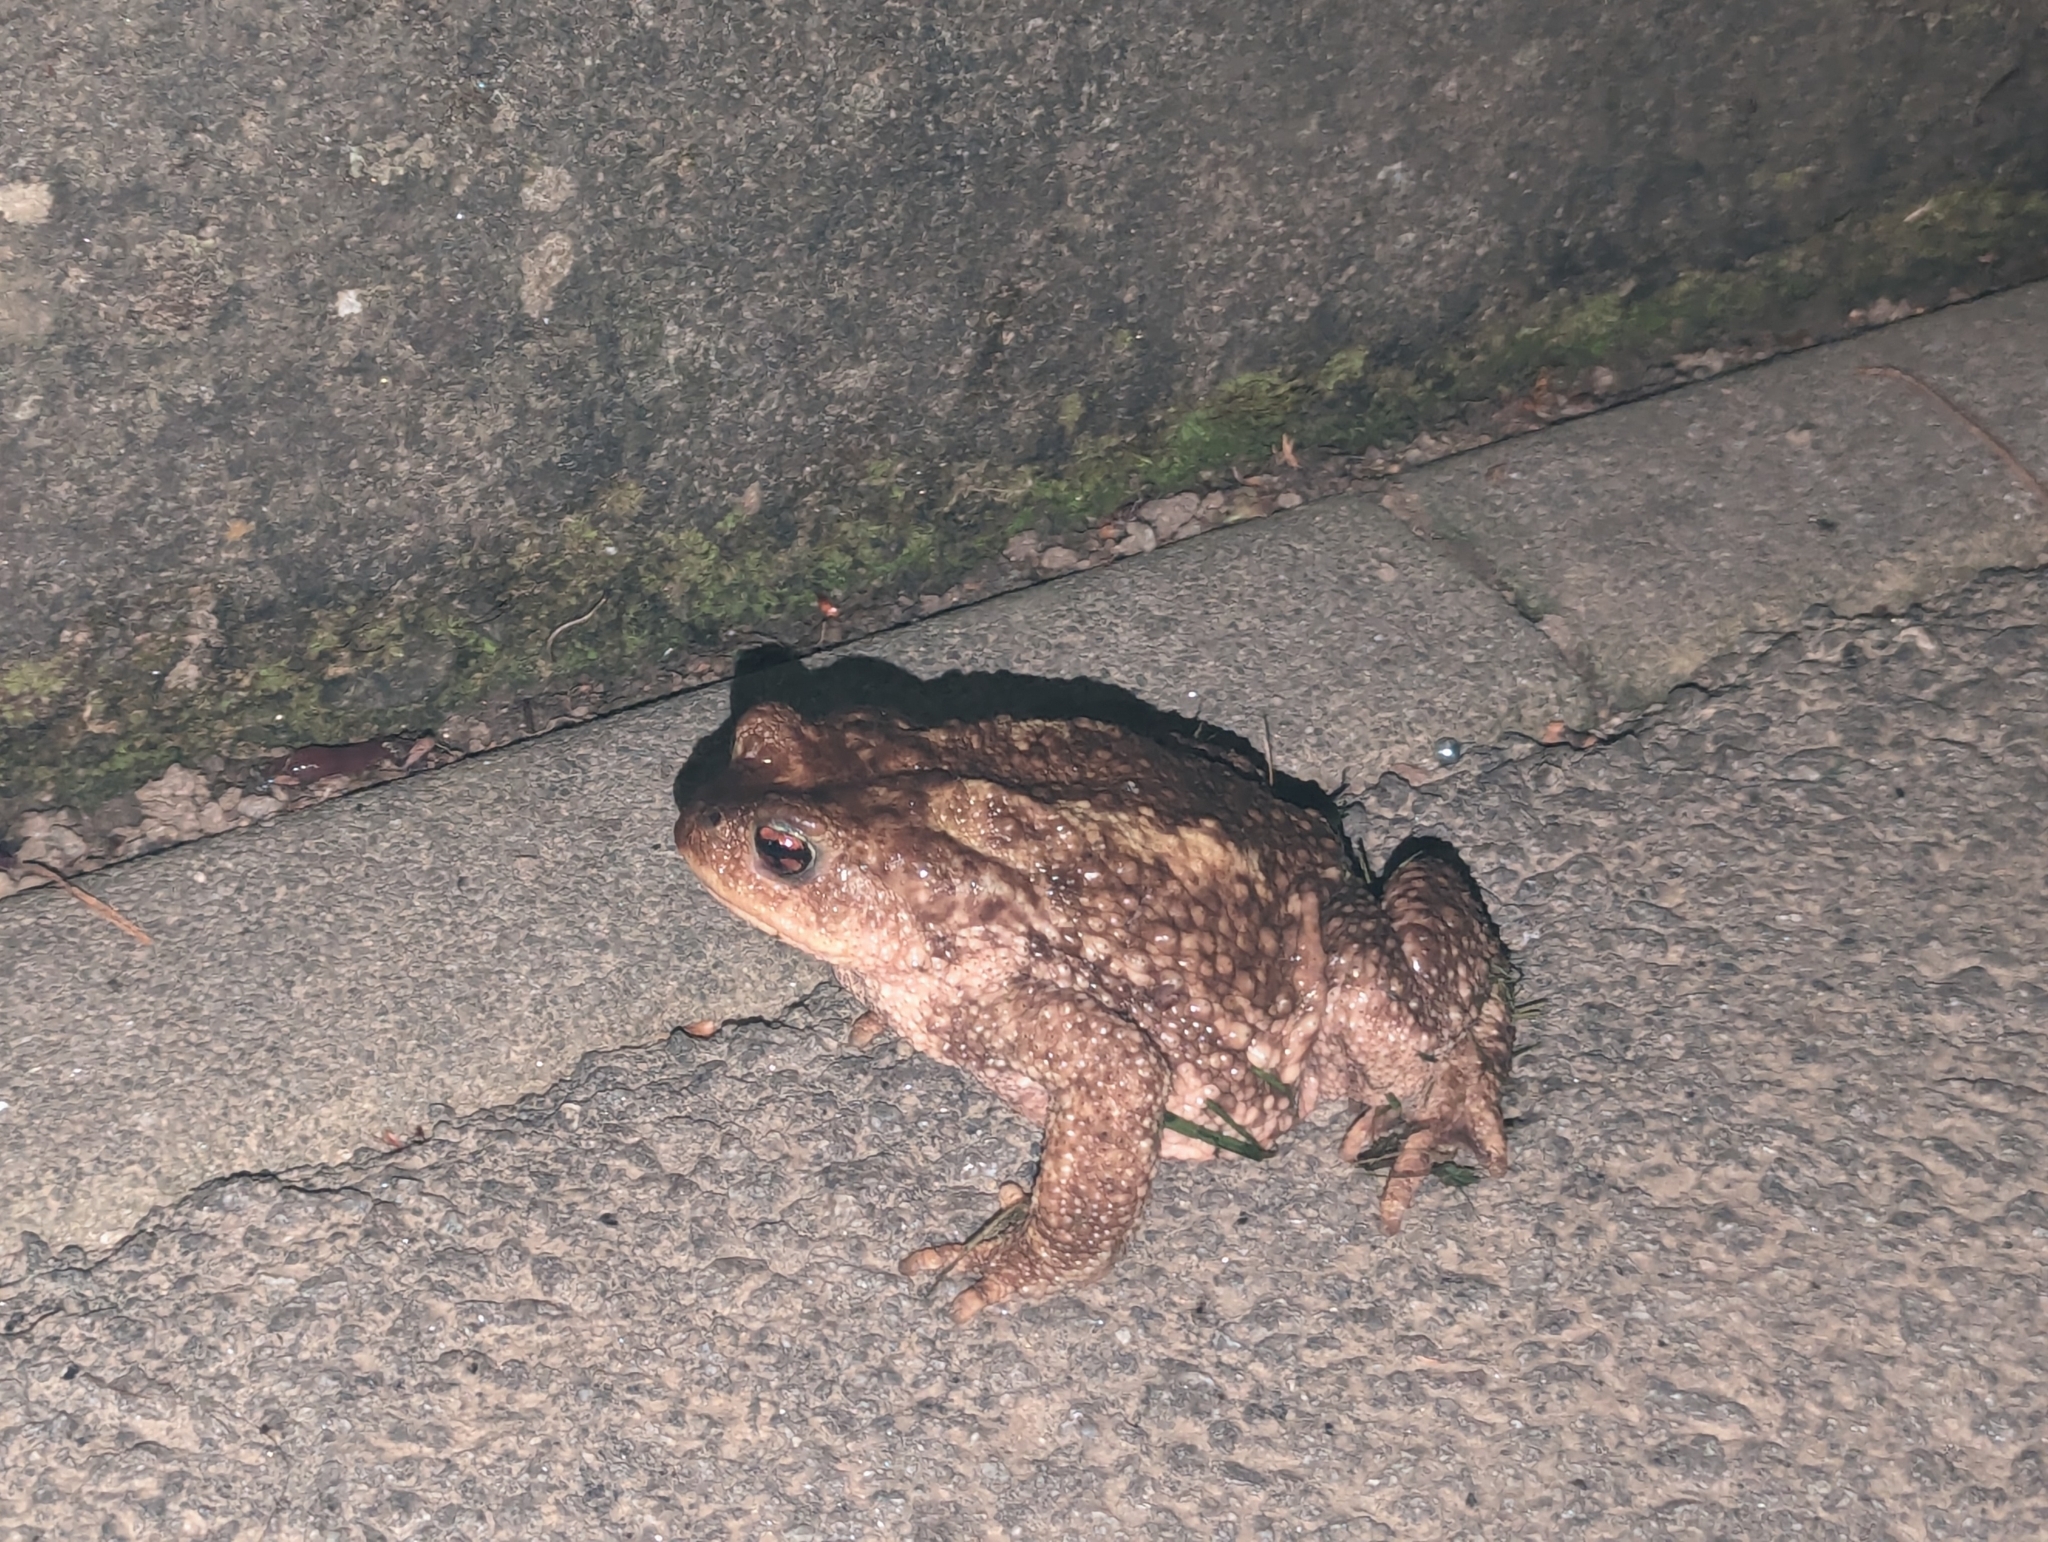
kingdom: Animalia
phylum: Chordata
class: Amphibia
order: Anura
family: Bufonidae
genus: Bufo
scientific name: Bufo spinosus
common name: Western common toad
